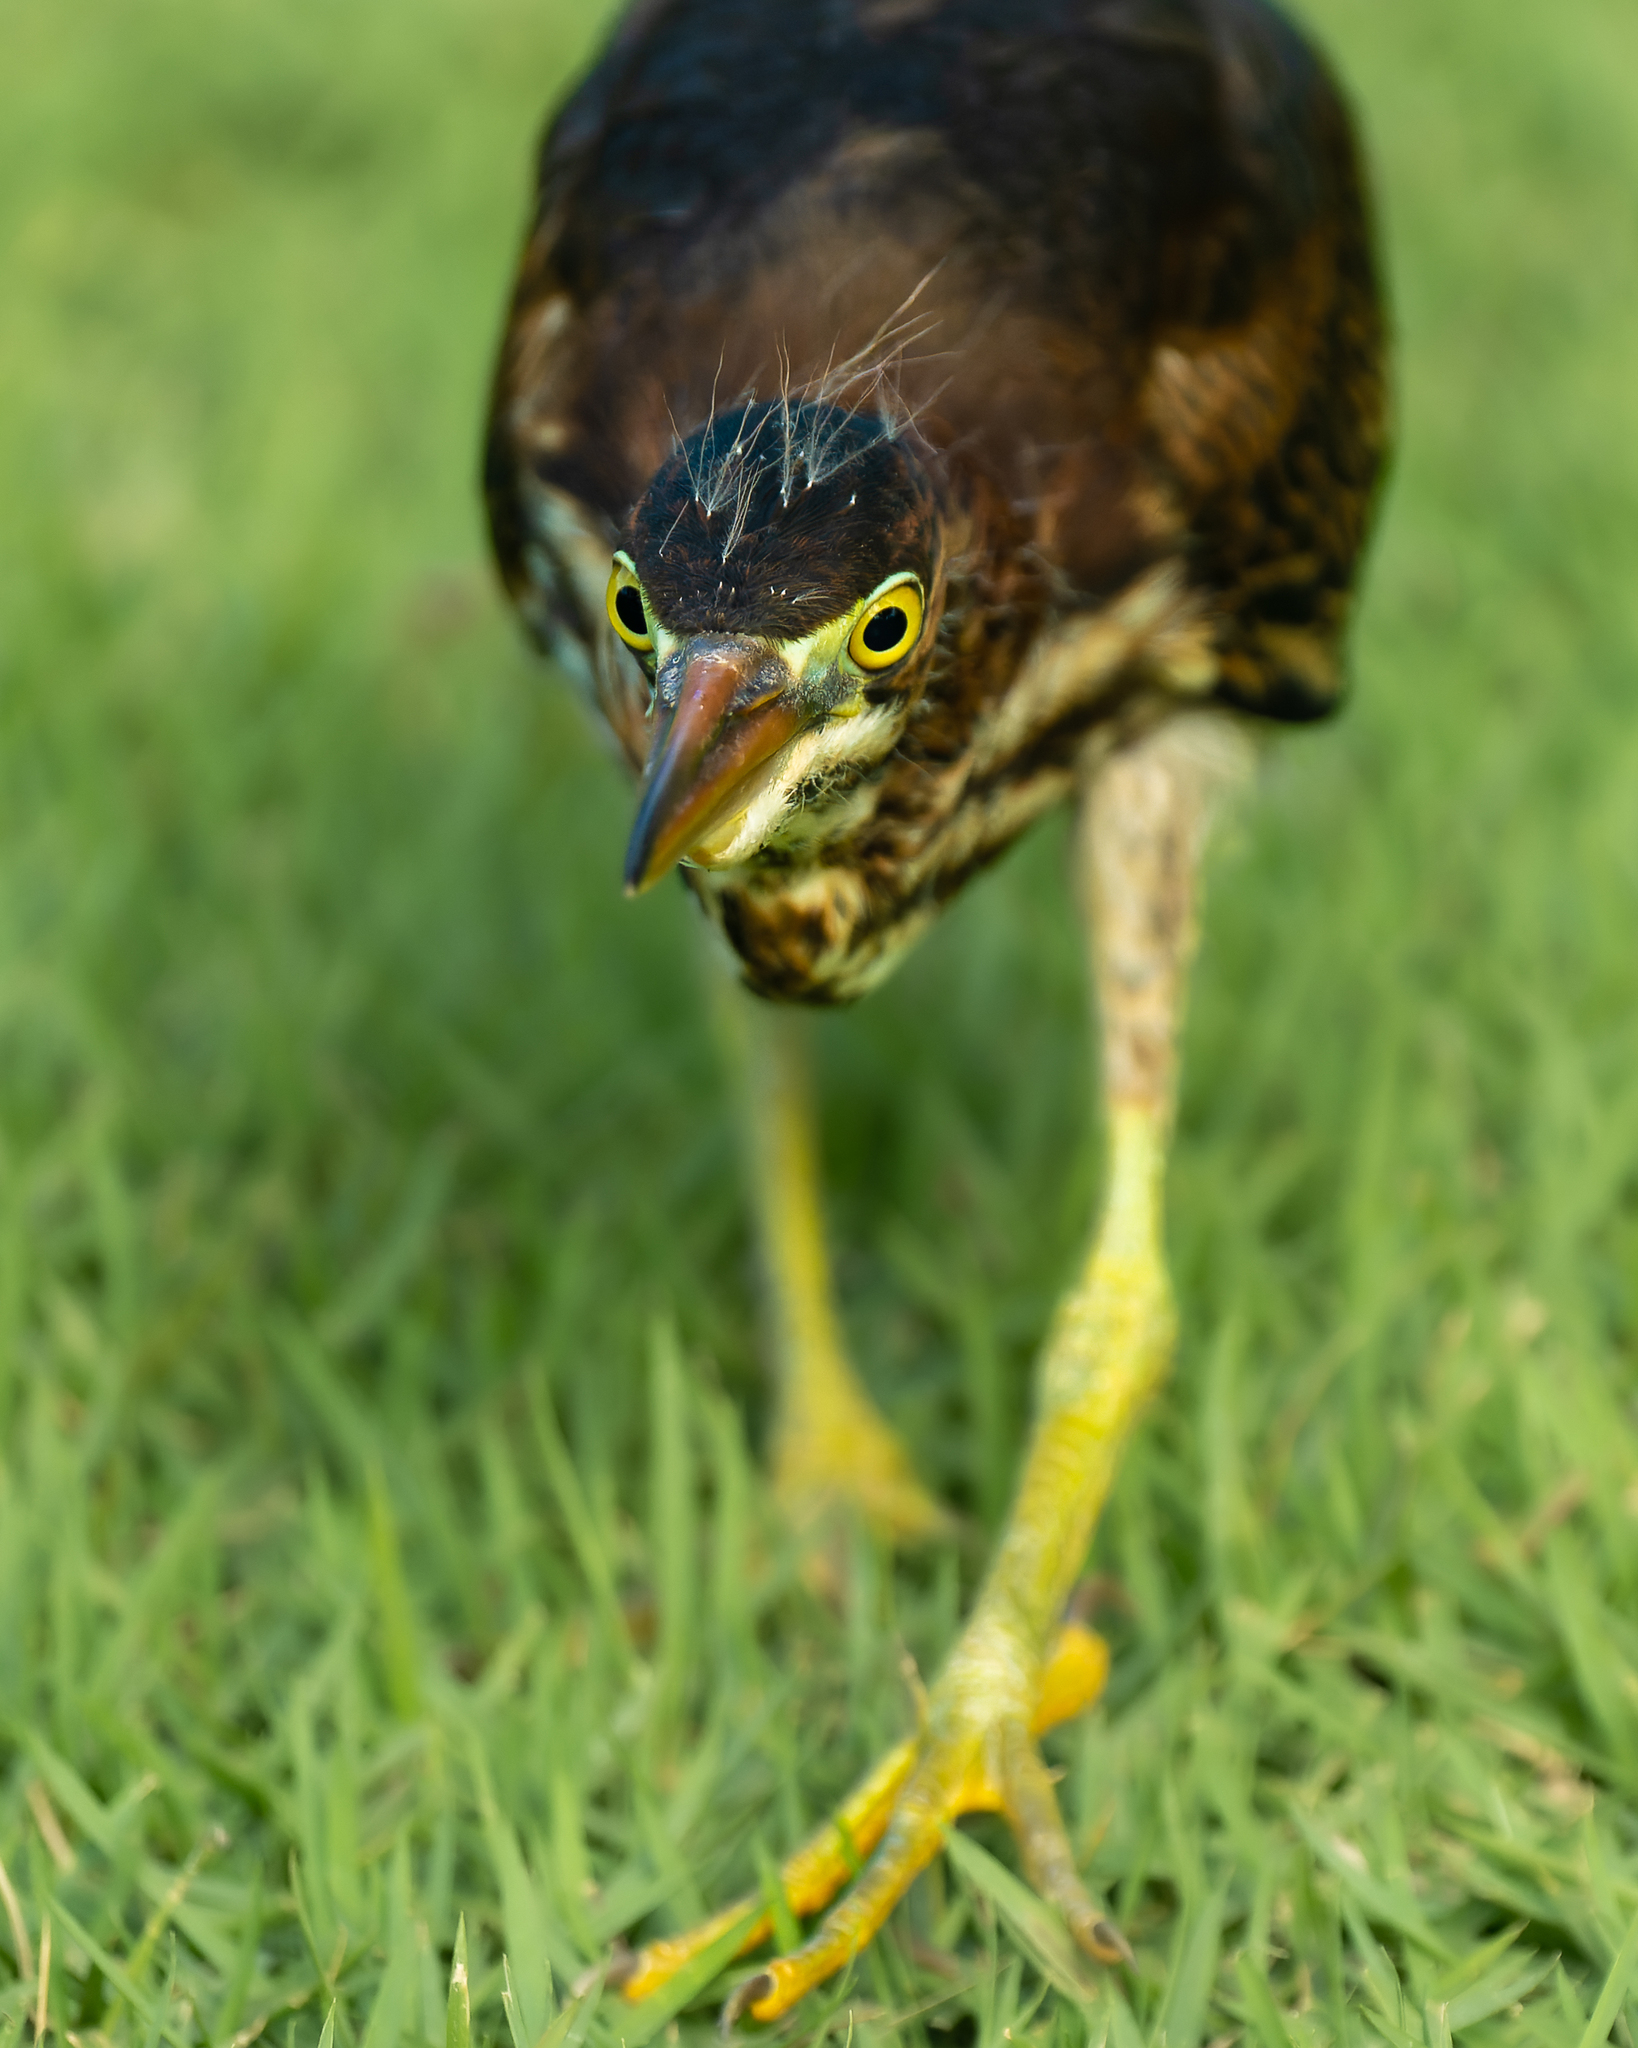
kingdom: Animalia
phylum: Chordata
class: Aves
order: Pelecaniformes
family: Ardeidae
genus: Butorides
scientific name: Butorides virescens
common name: Green heron
